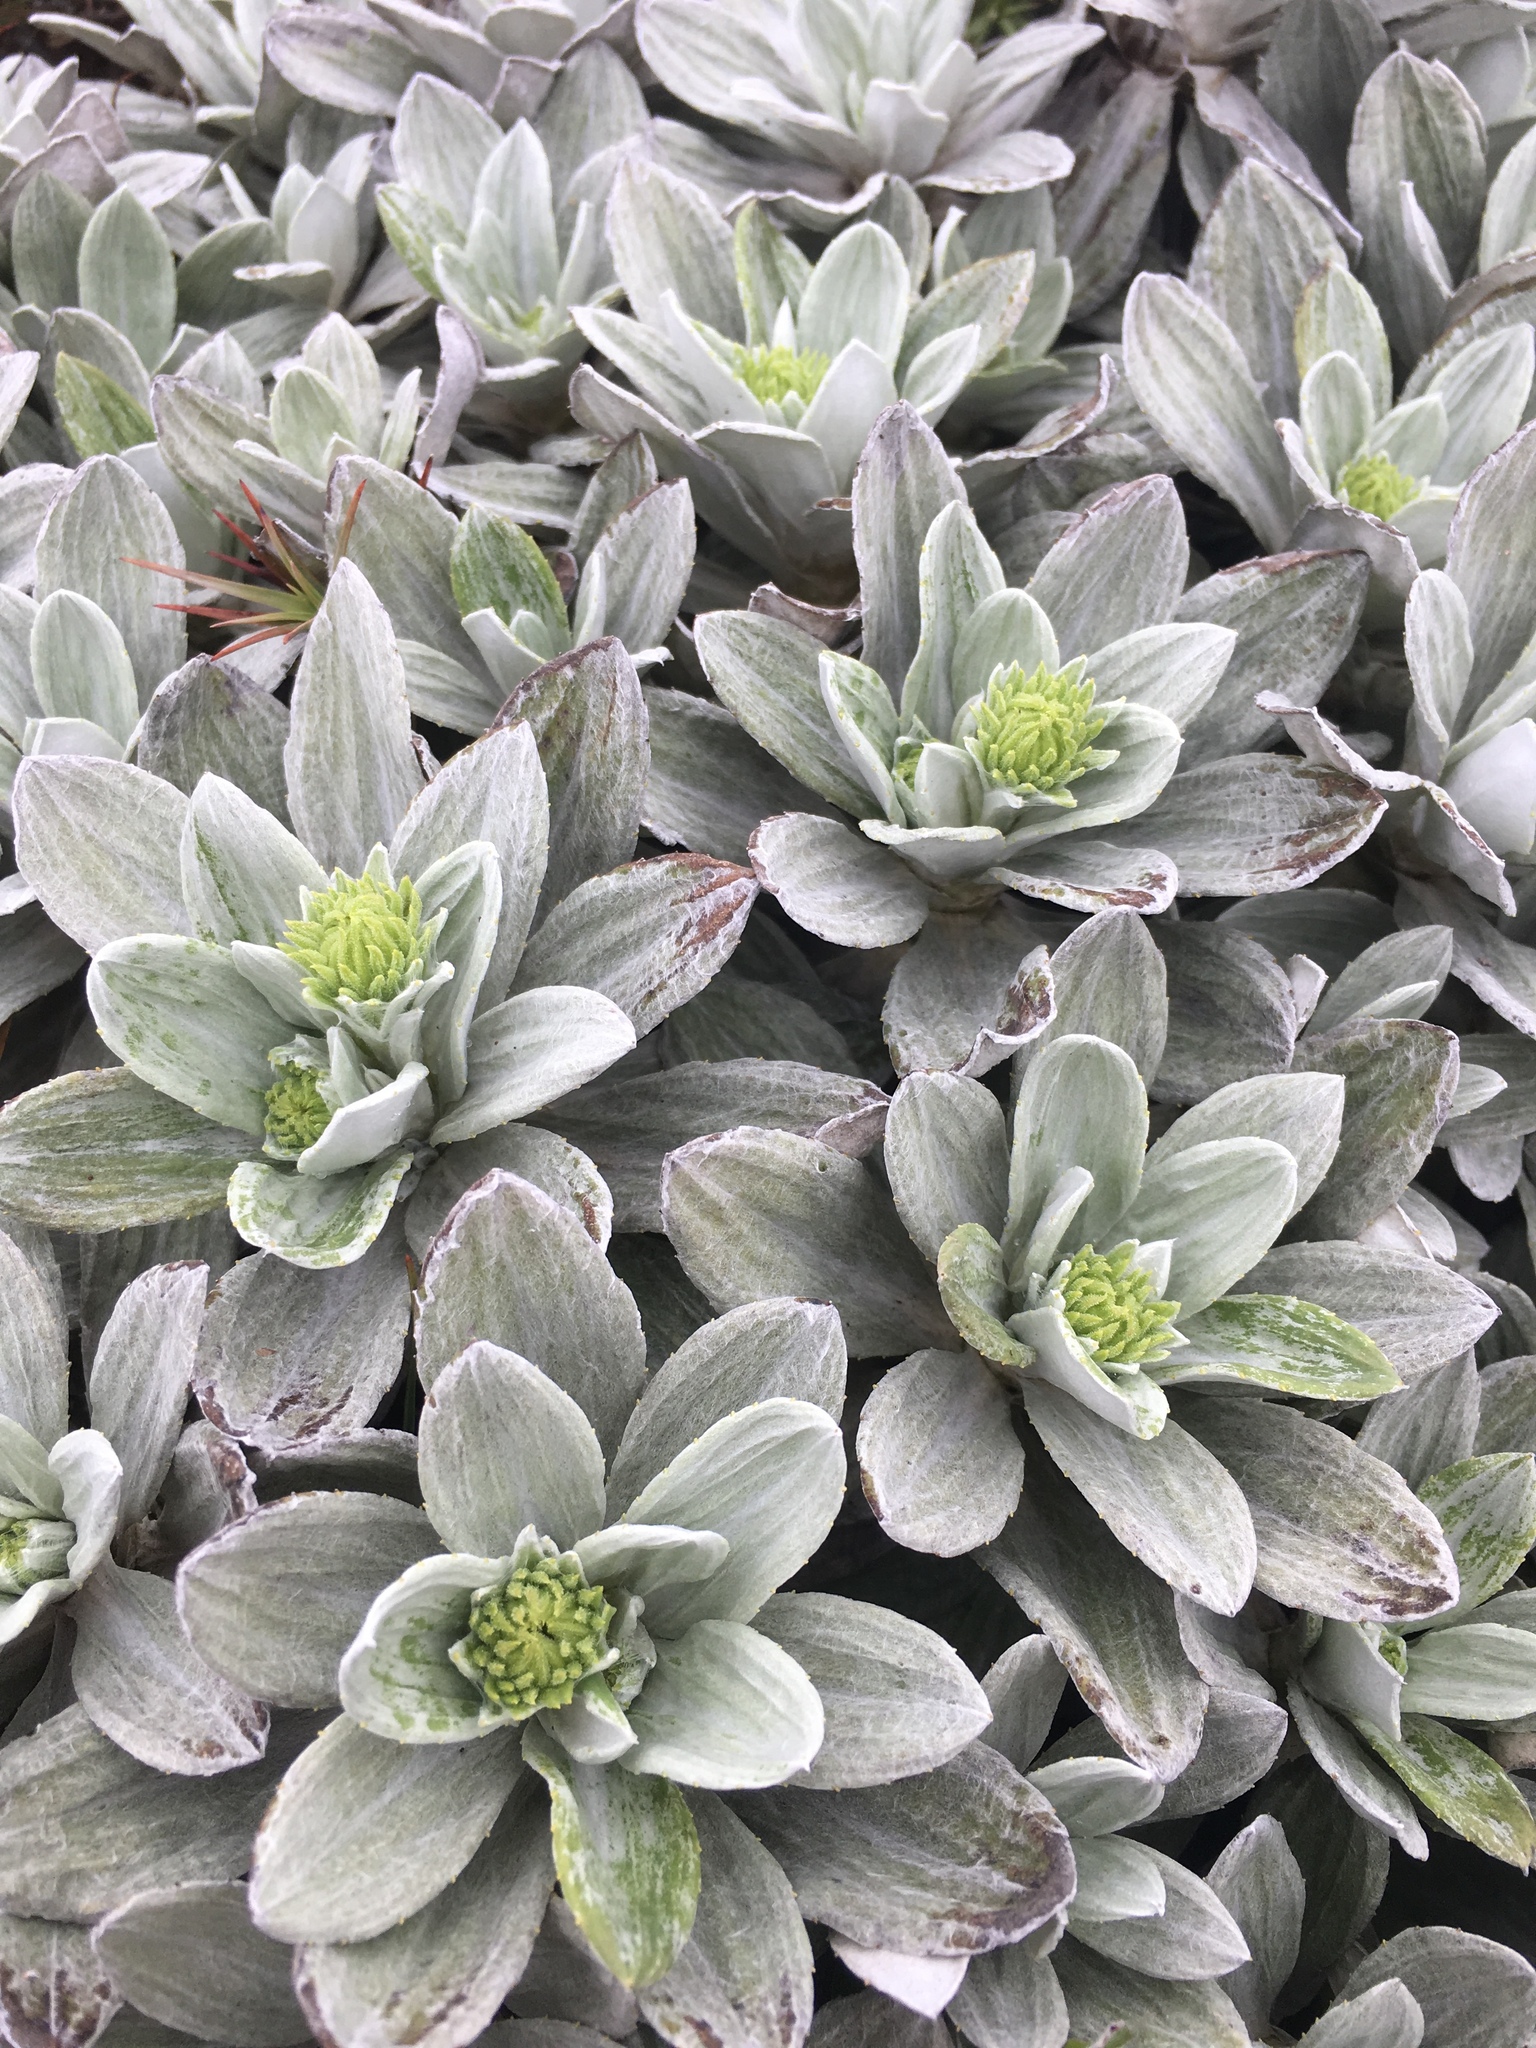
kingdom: Plantae
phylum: Tracheophyta
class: Magnoliopsida
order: Asterales
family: Asteraceae
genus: Celmisia
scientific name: Celmisia incana
